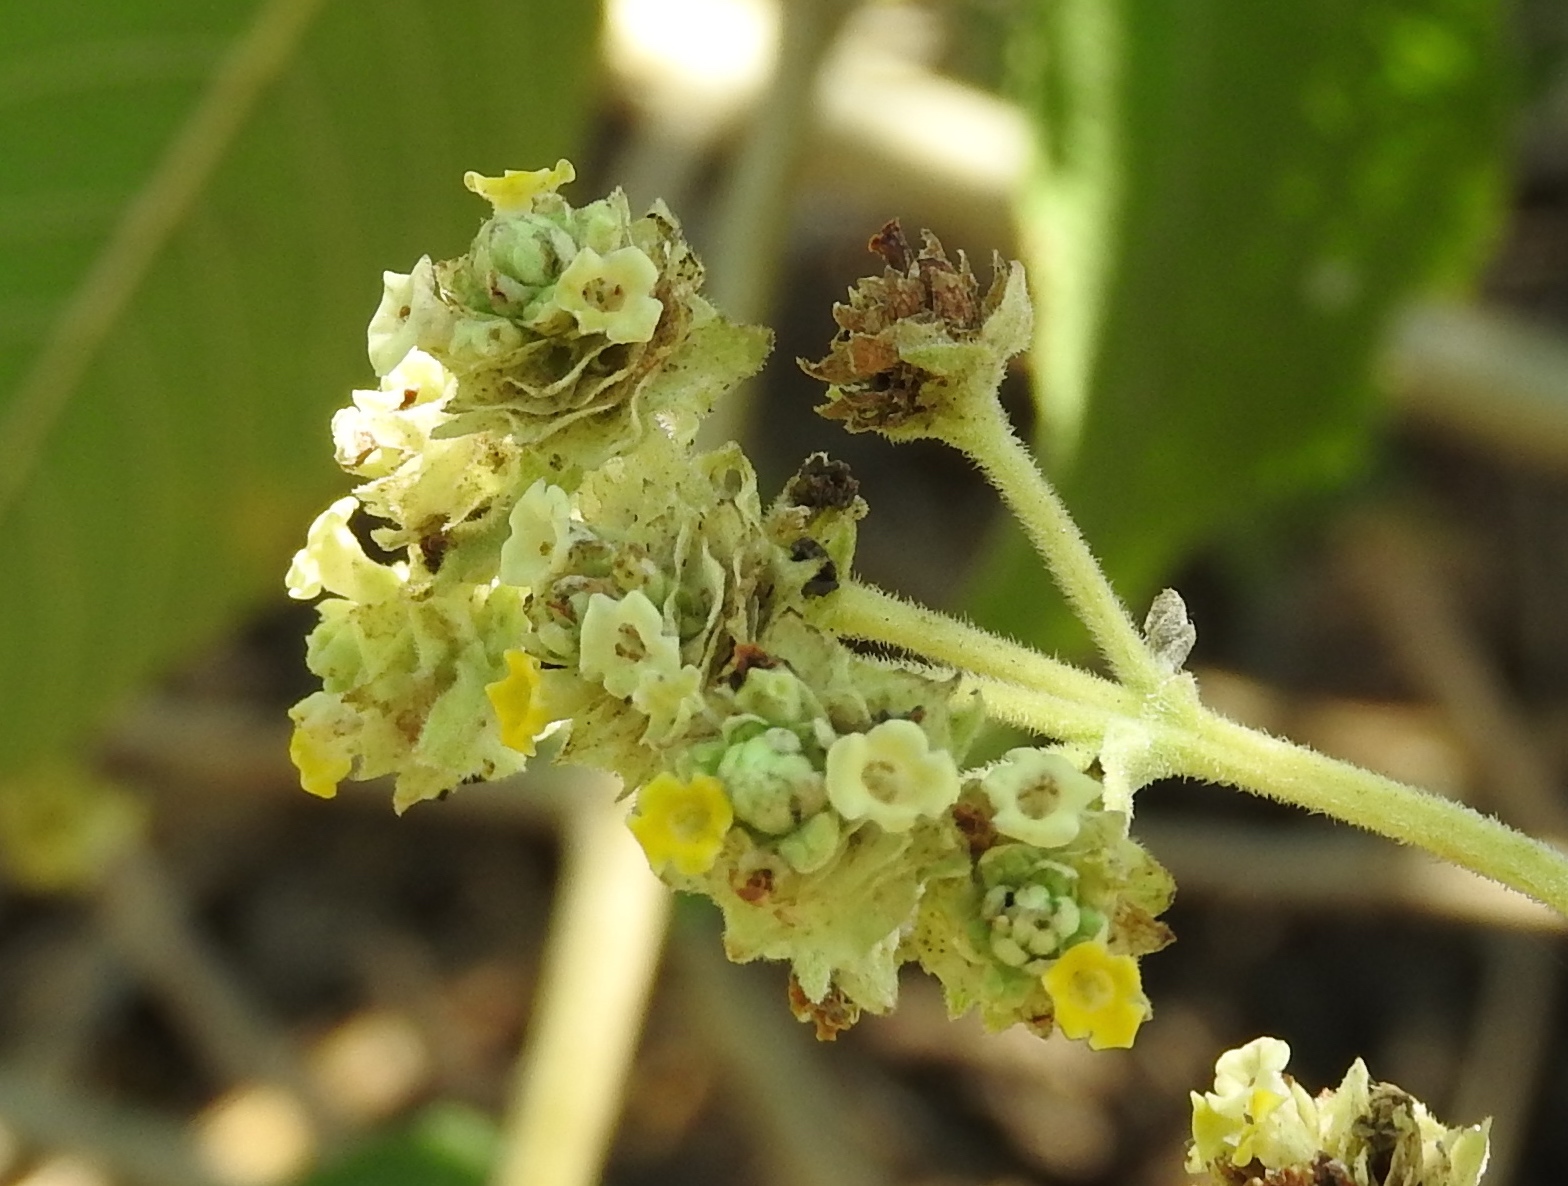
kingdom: Plantae
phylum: Tracheophyta
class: Magnoliopsida
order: Lamiales
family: Verbenaceae
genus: Lippia
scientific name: Lippia umbellata
